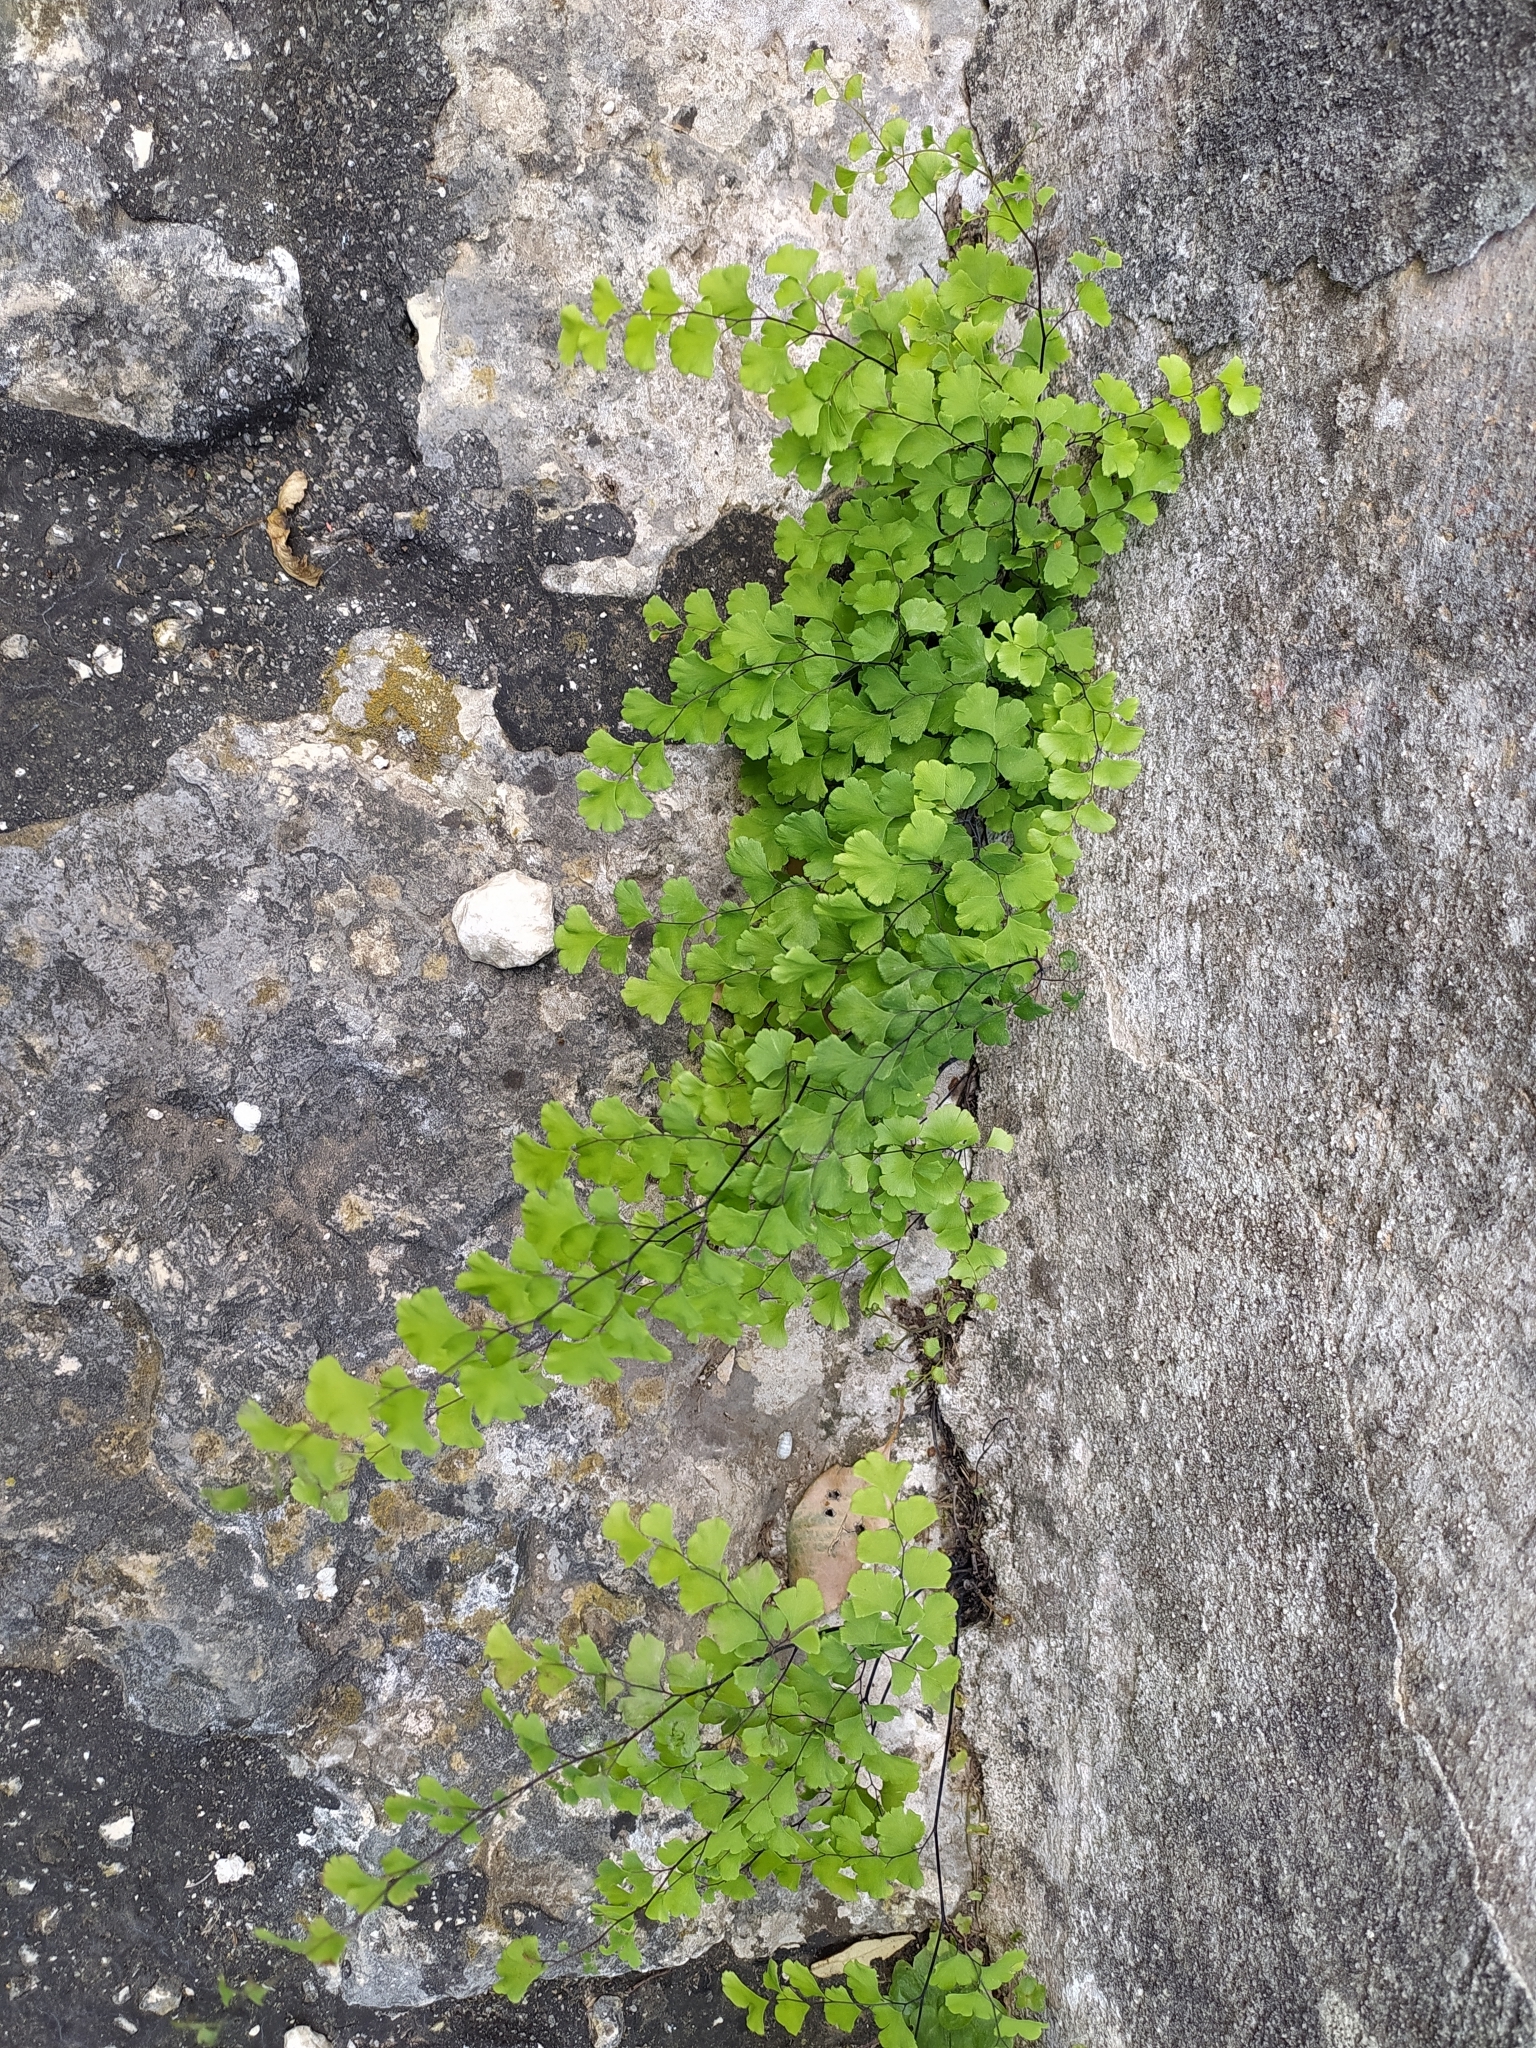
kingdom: Plantae
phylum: Tracheophyta
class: Polypodiopsida
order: Polypodiales
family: Pteridaceae
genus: Adiantum
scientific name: Adiantum capillus-veneris
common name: Maidenhair fern
